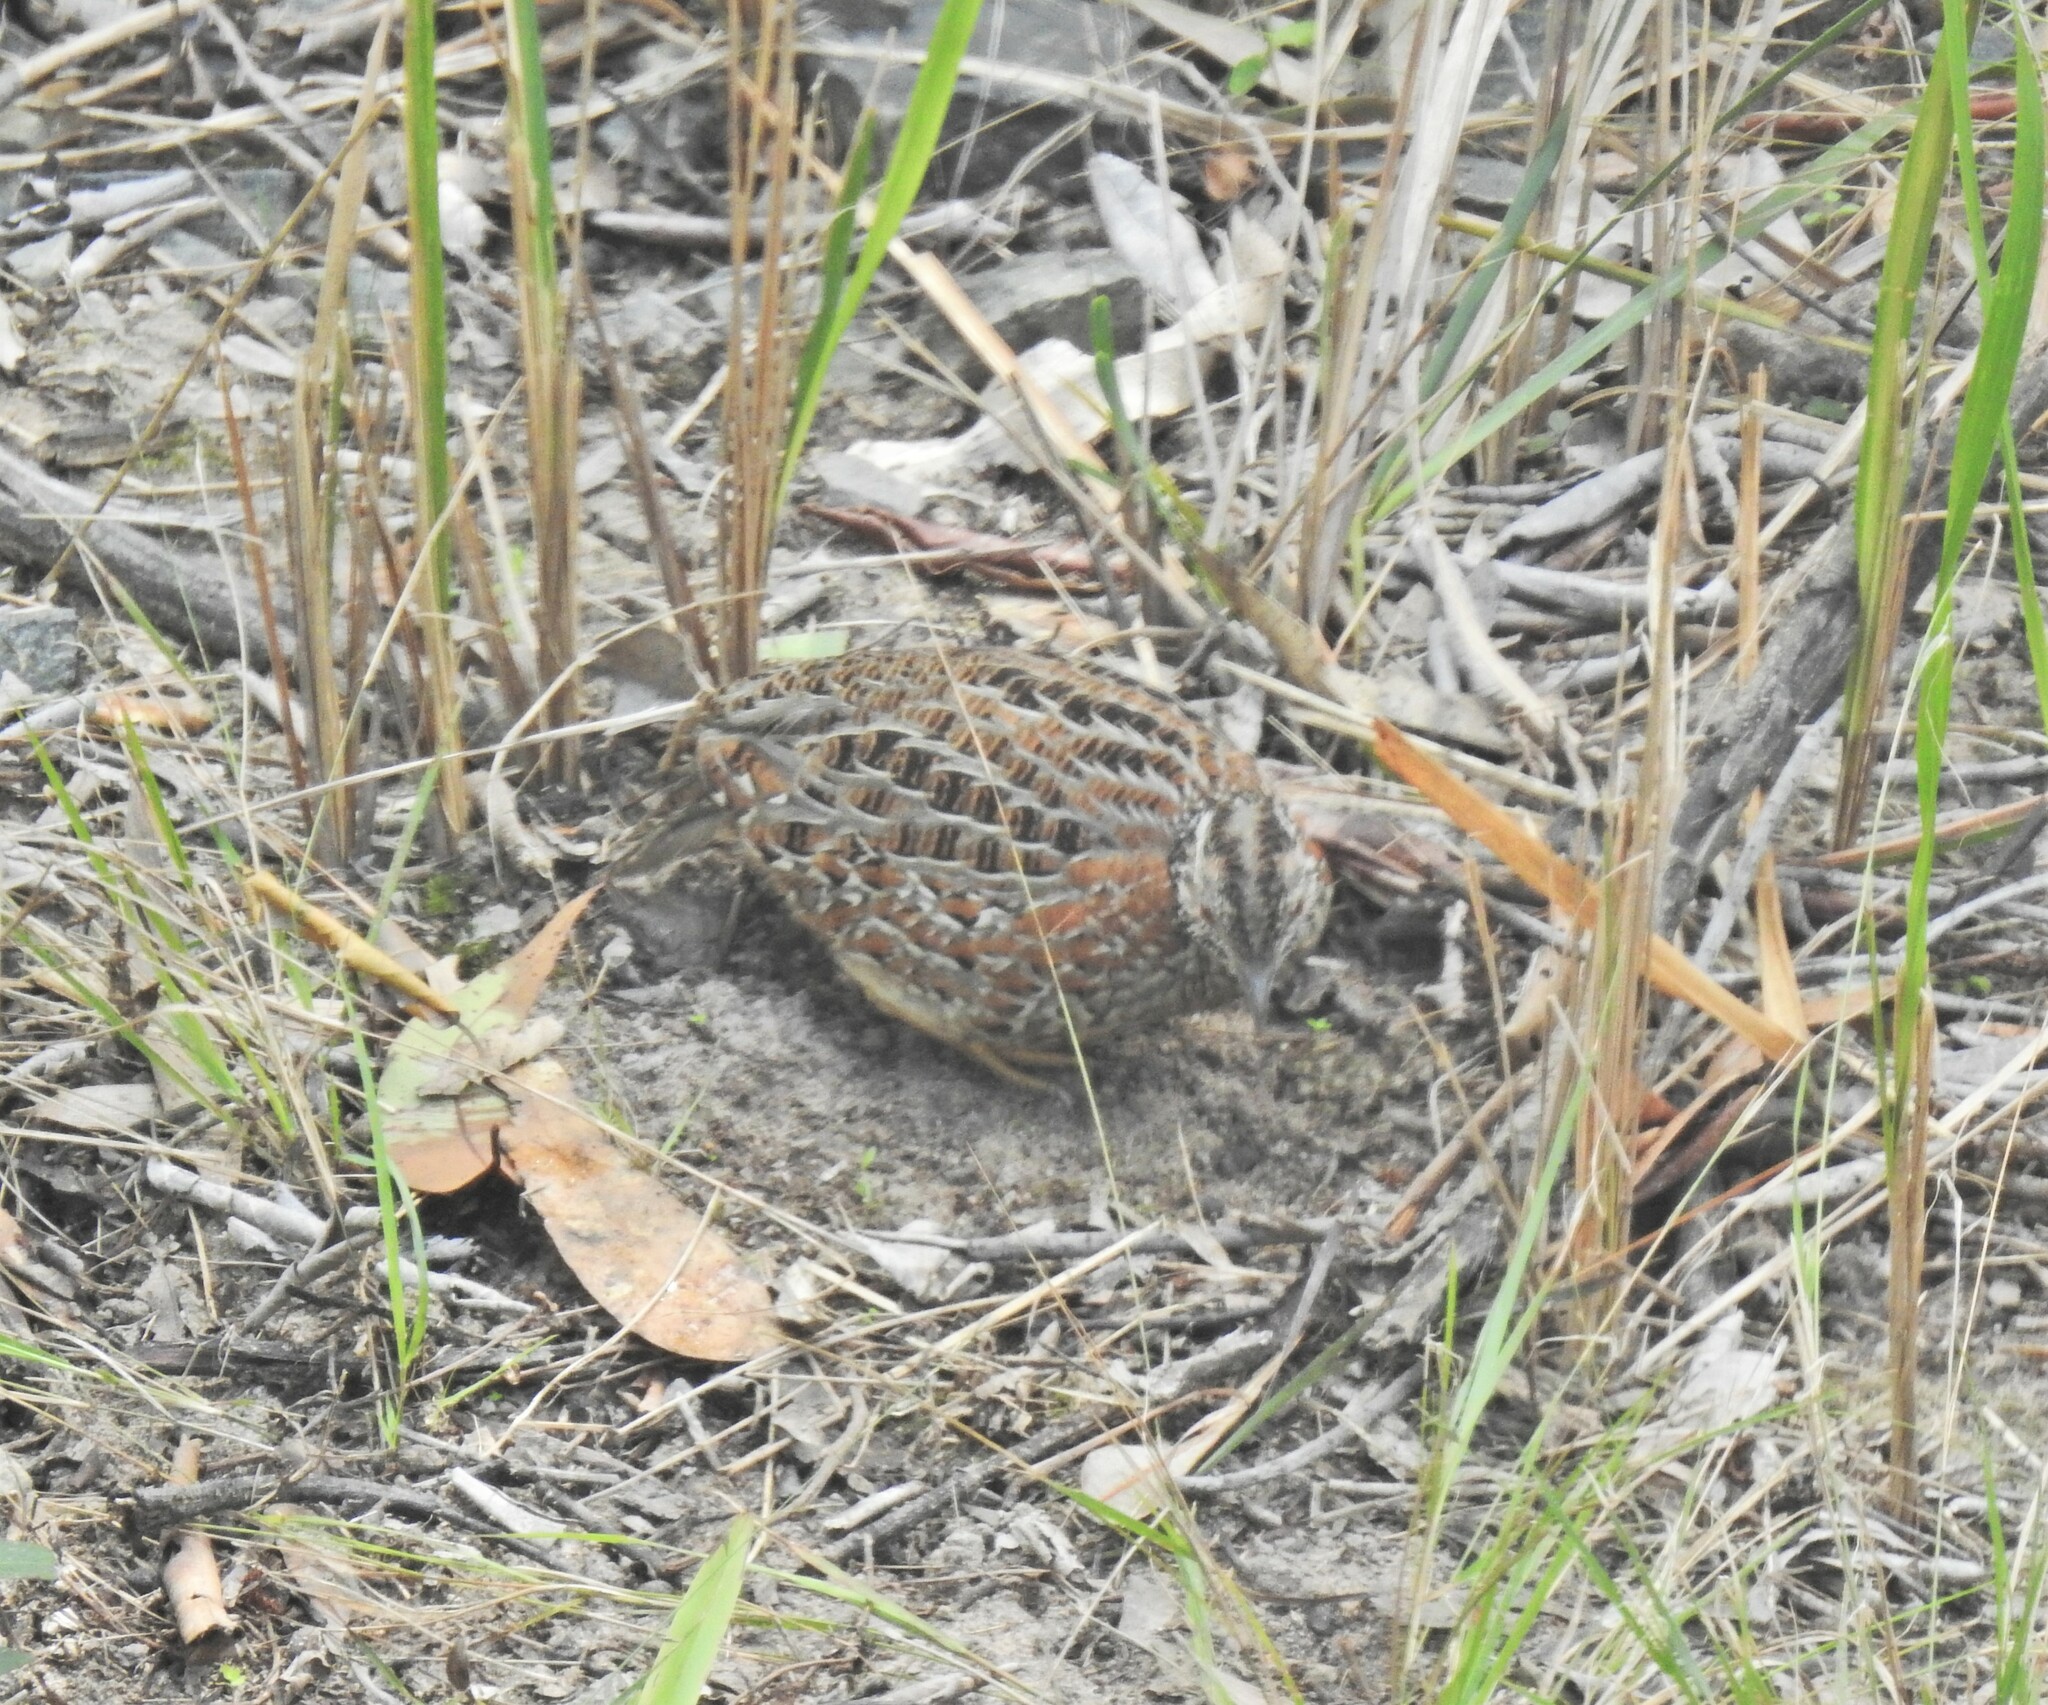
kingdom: Animalia
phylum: Chordata
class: Aves
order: Charadriiformes
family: Turnicidae
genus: Turnix
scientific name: Turnix varius
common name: Painted buttonquail
